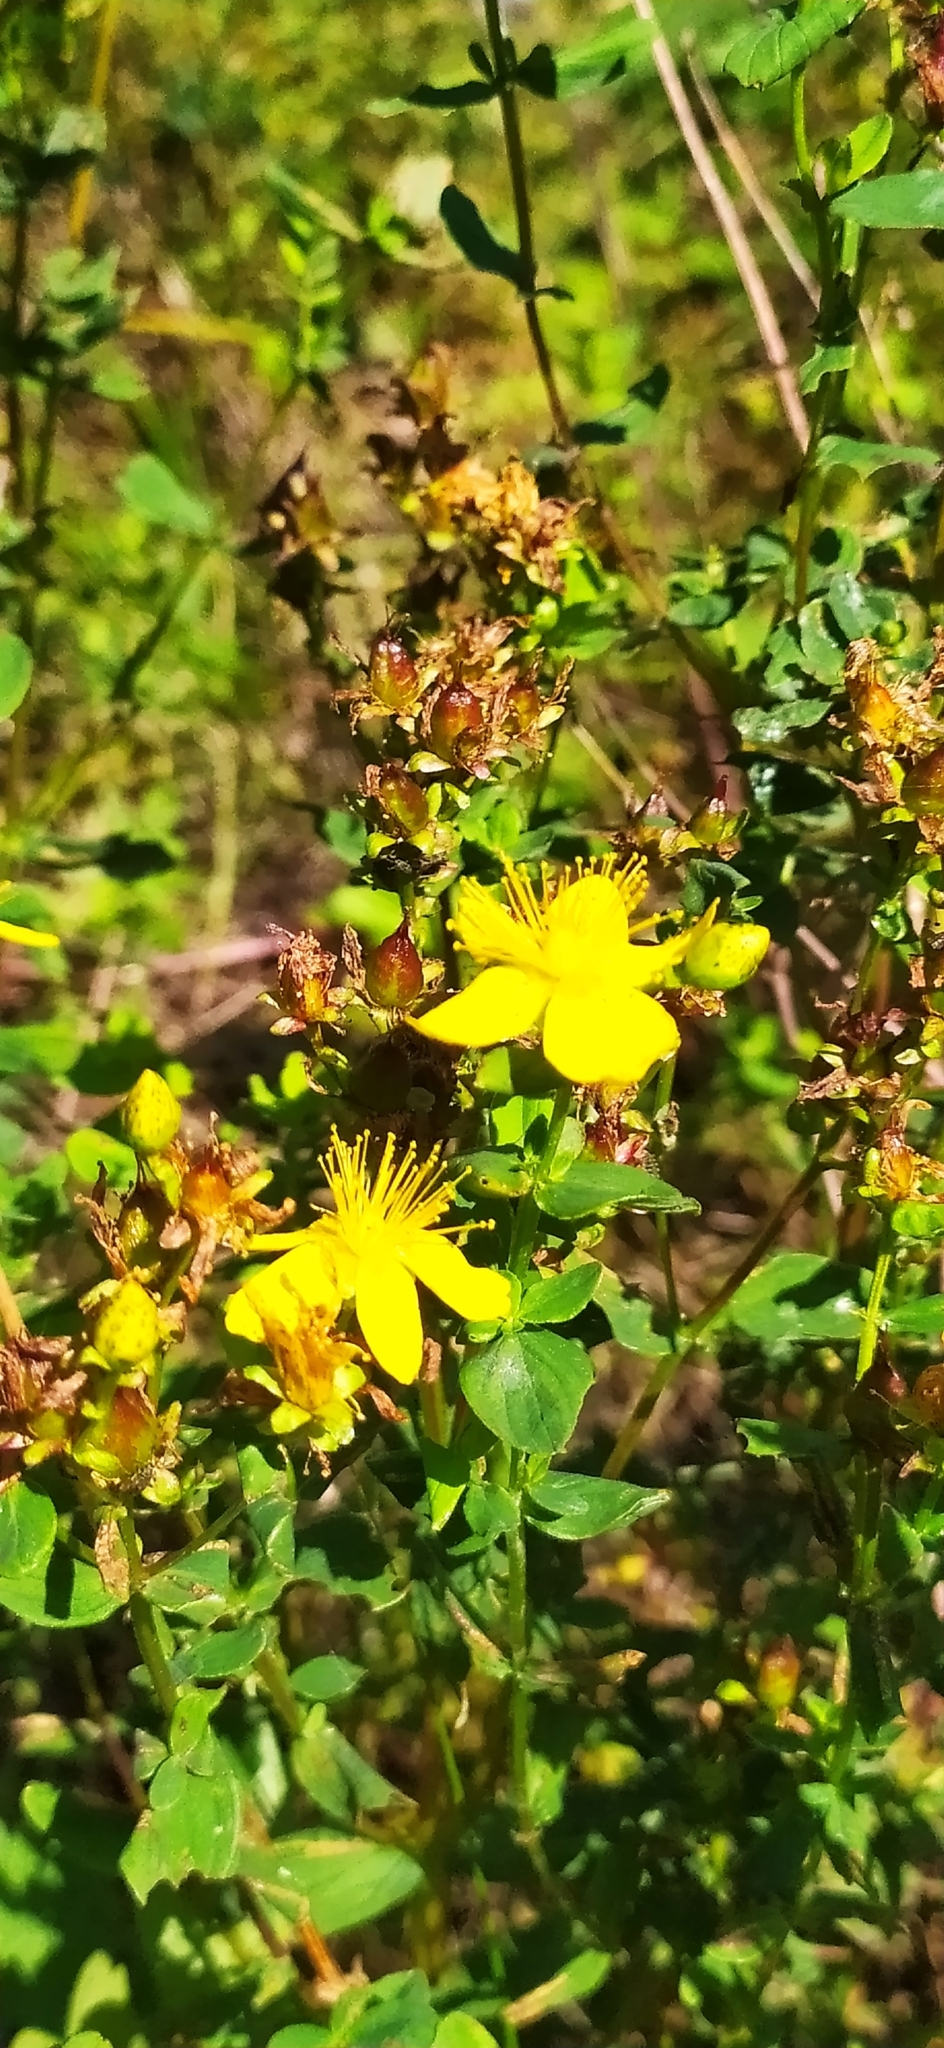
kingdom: Plantae
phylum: Tracheophyta
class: Magnoliopsida
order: Malpighiales
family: Hypericaceae
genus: Hypericum
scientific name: Hypericum maculatum
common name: Imperforate st. john's-wort
